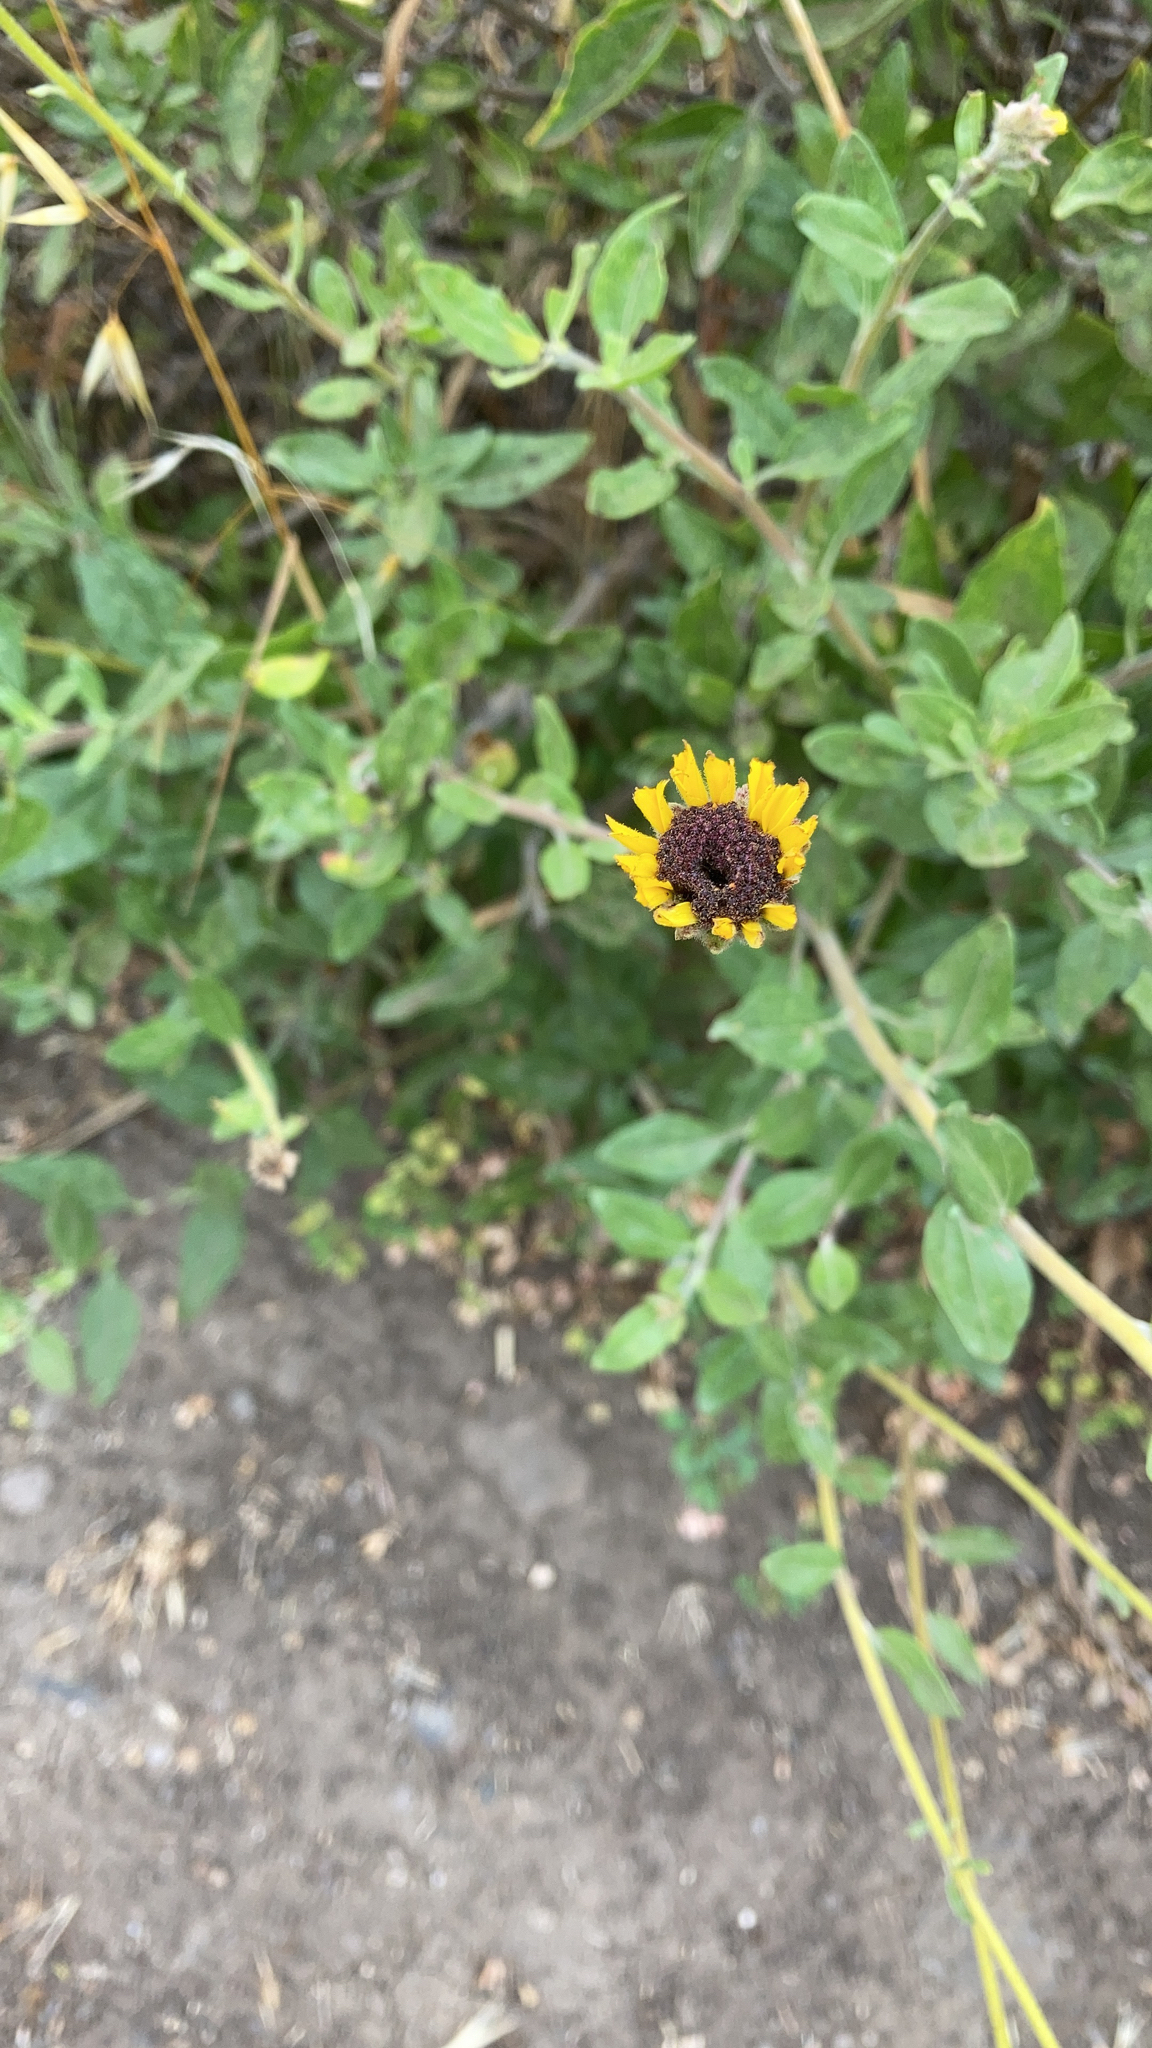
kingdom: Plantae
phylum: Tracheophyta
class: Magnoliopsida
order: Asterales
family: Asteraceae
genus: Encelia
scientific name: Encelia californica
